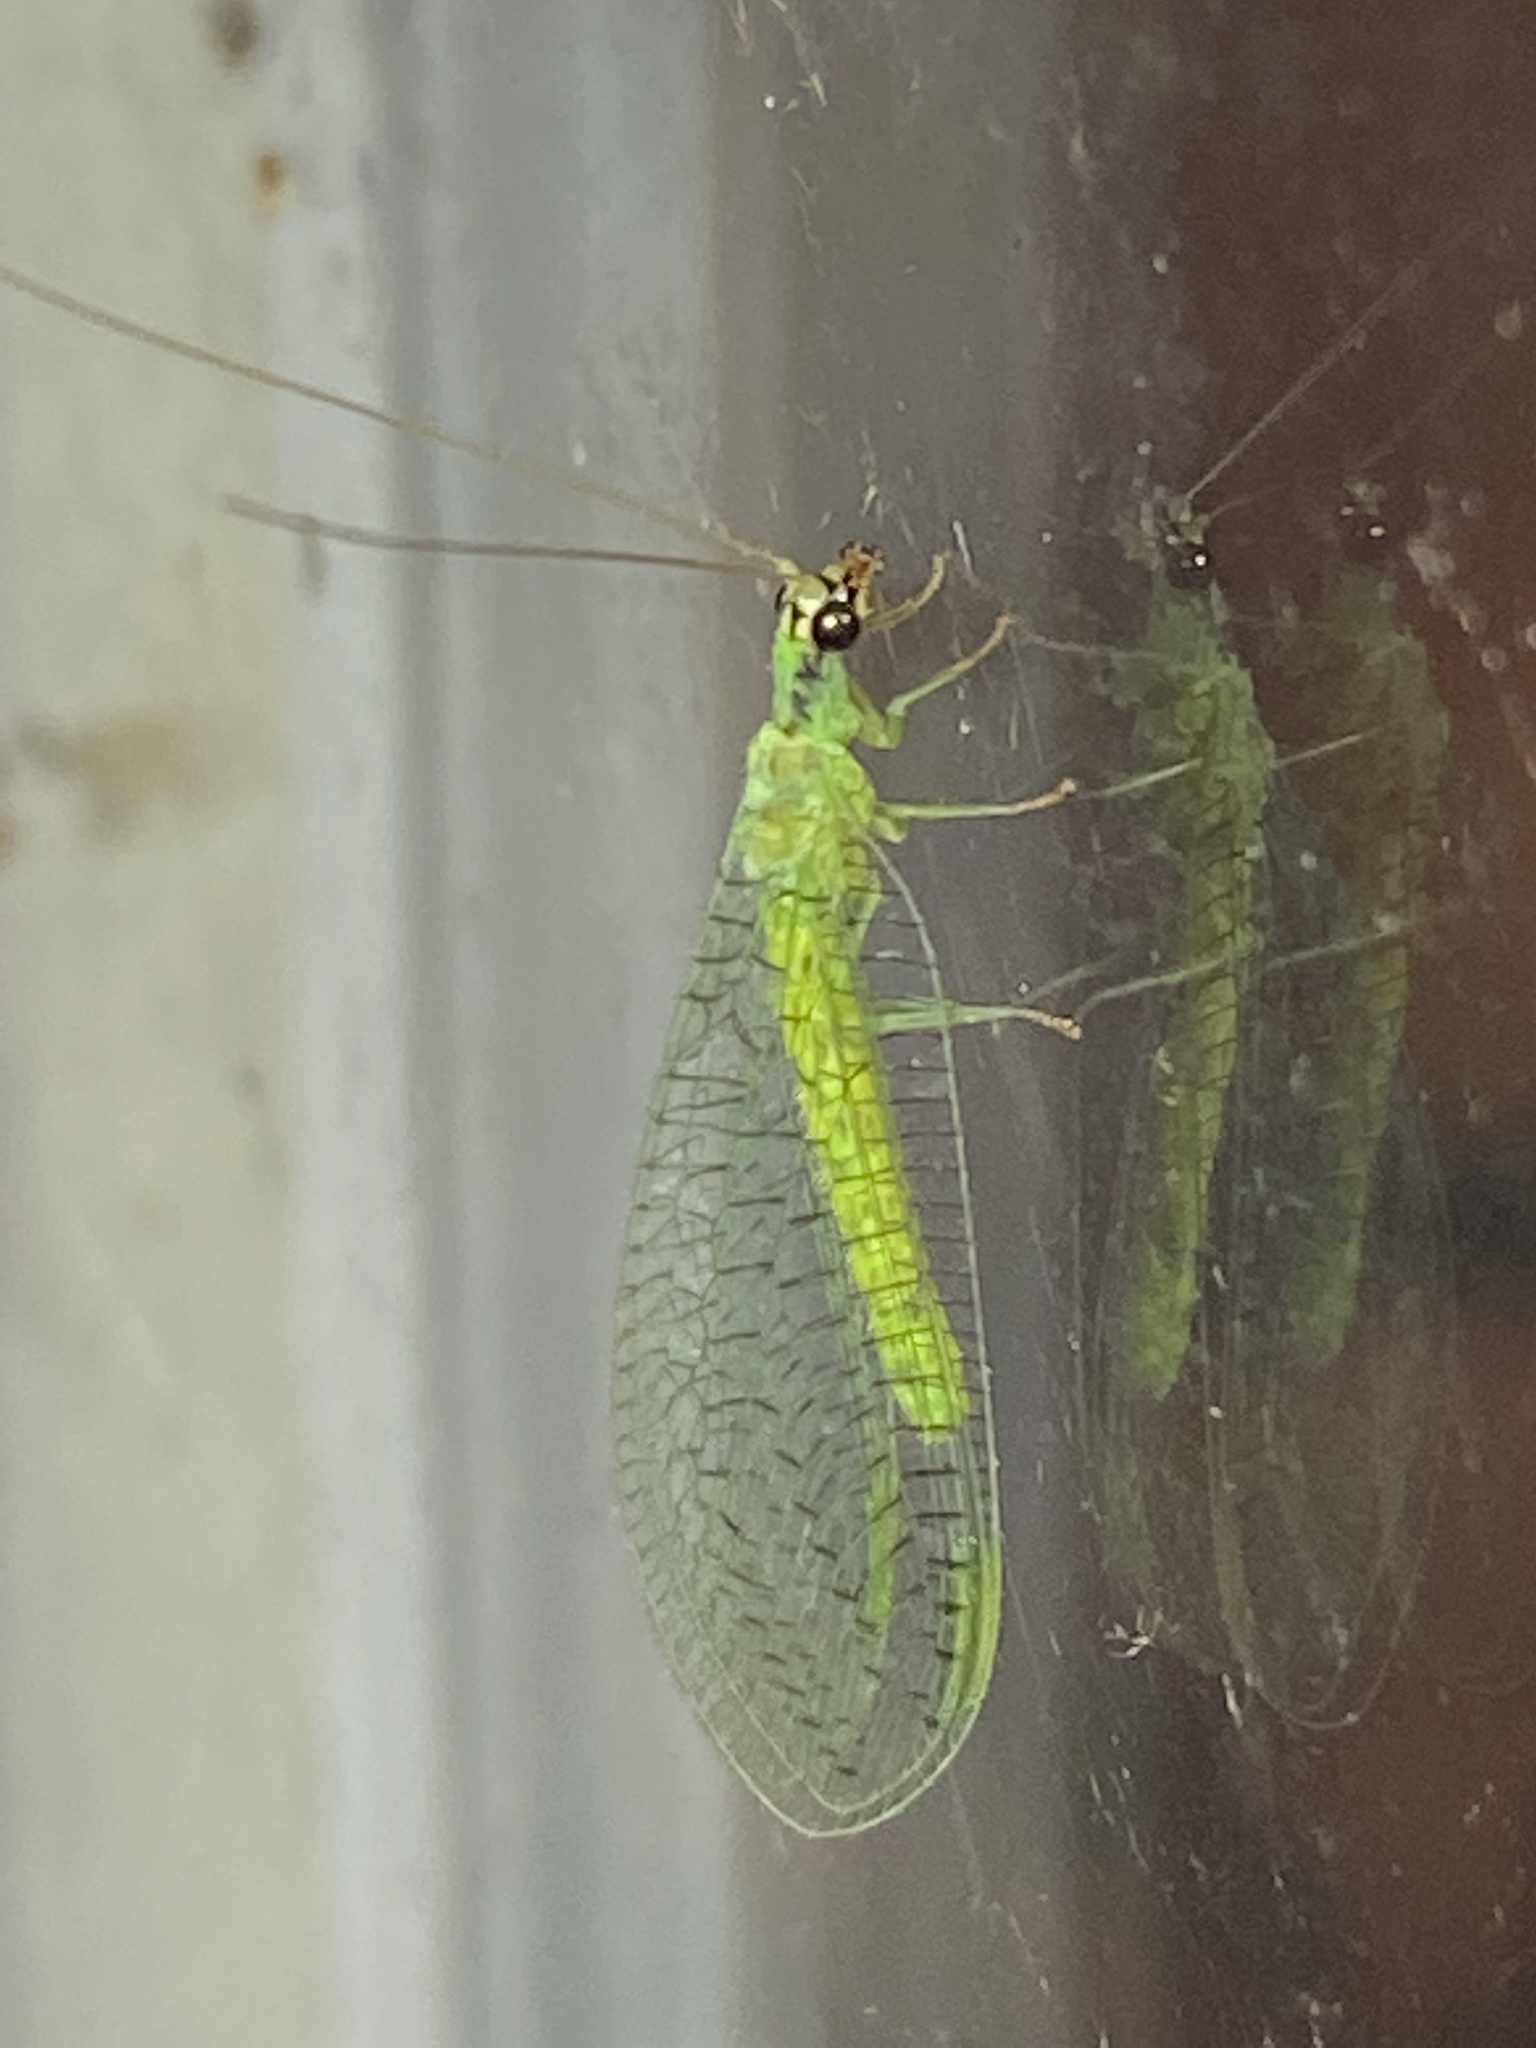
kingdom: Animalia
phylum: Arthropoda
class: Insecta
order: Neuroptera
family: Chrysopidae
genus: Chrysopa
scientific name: Chrysopa incompleta
